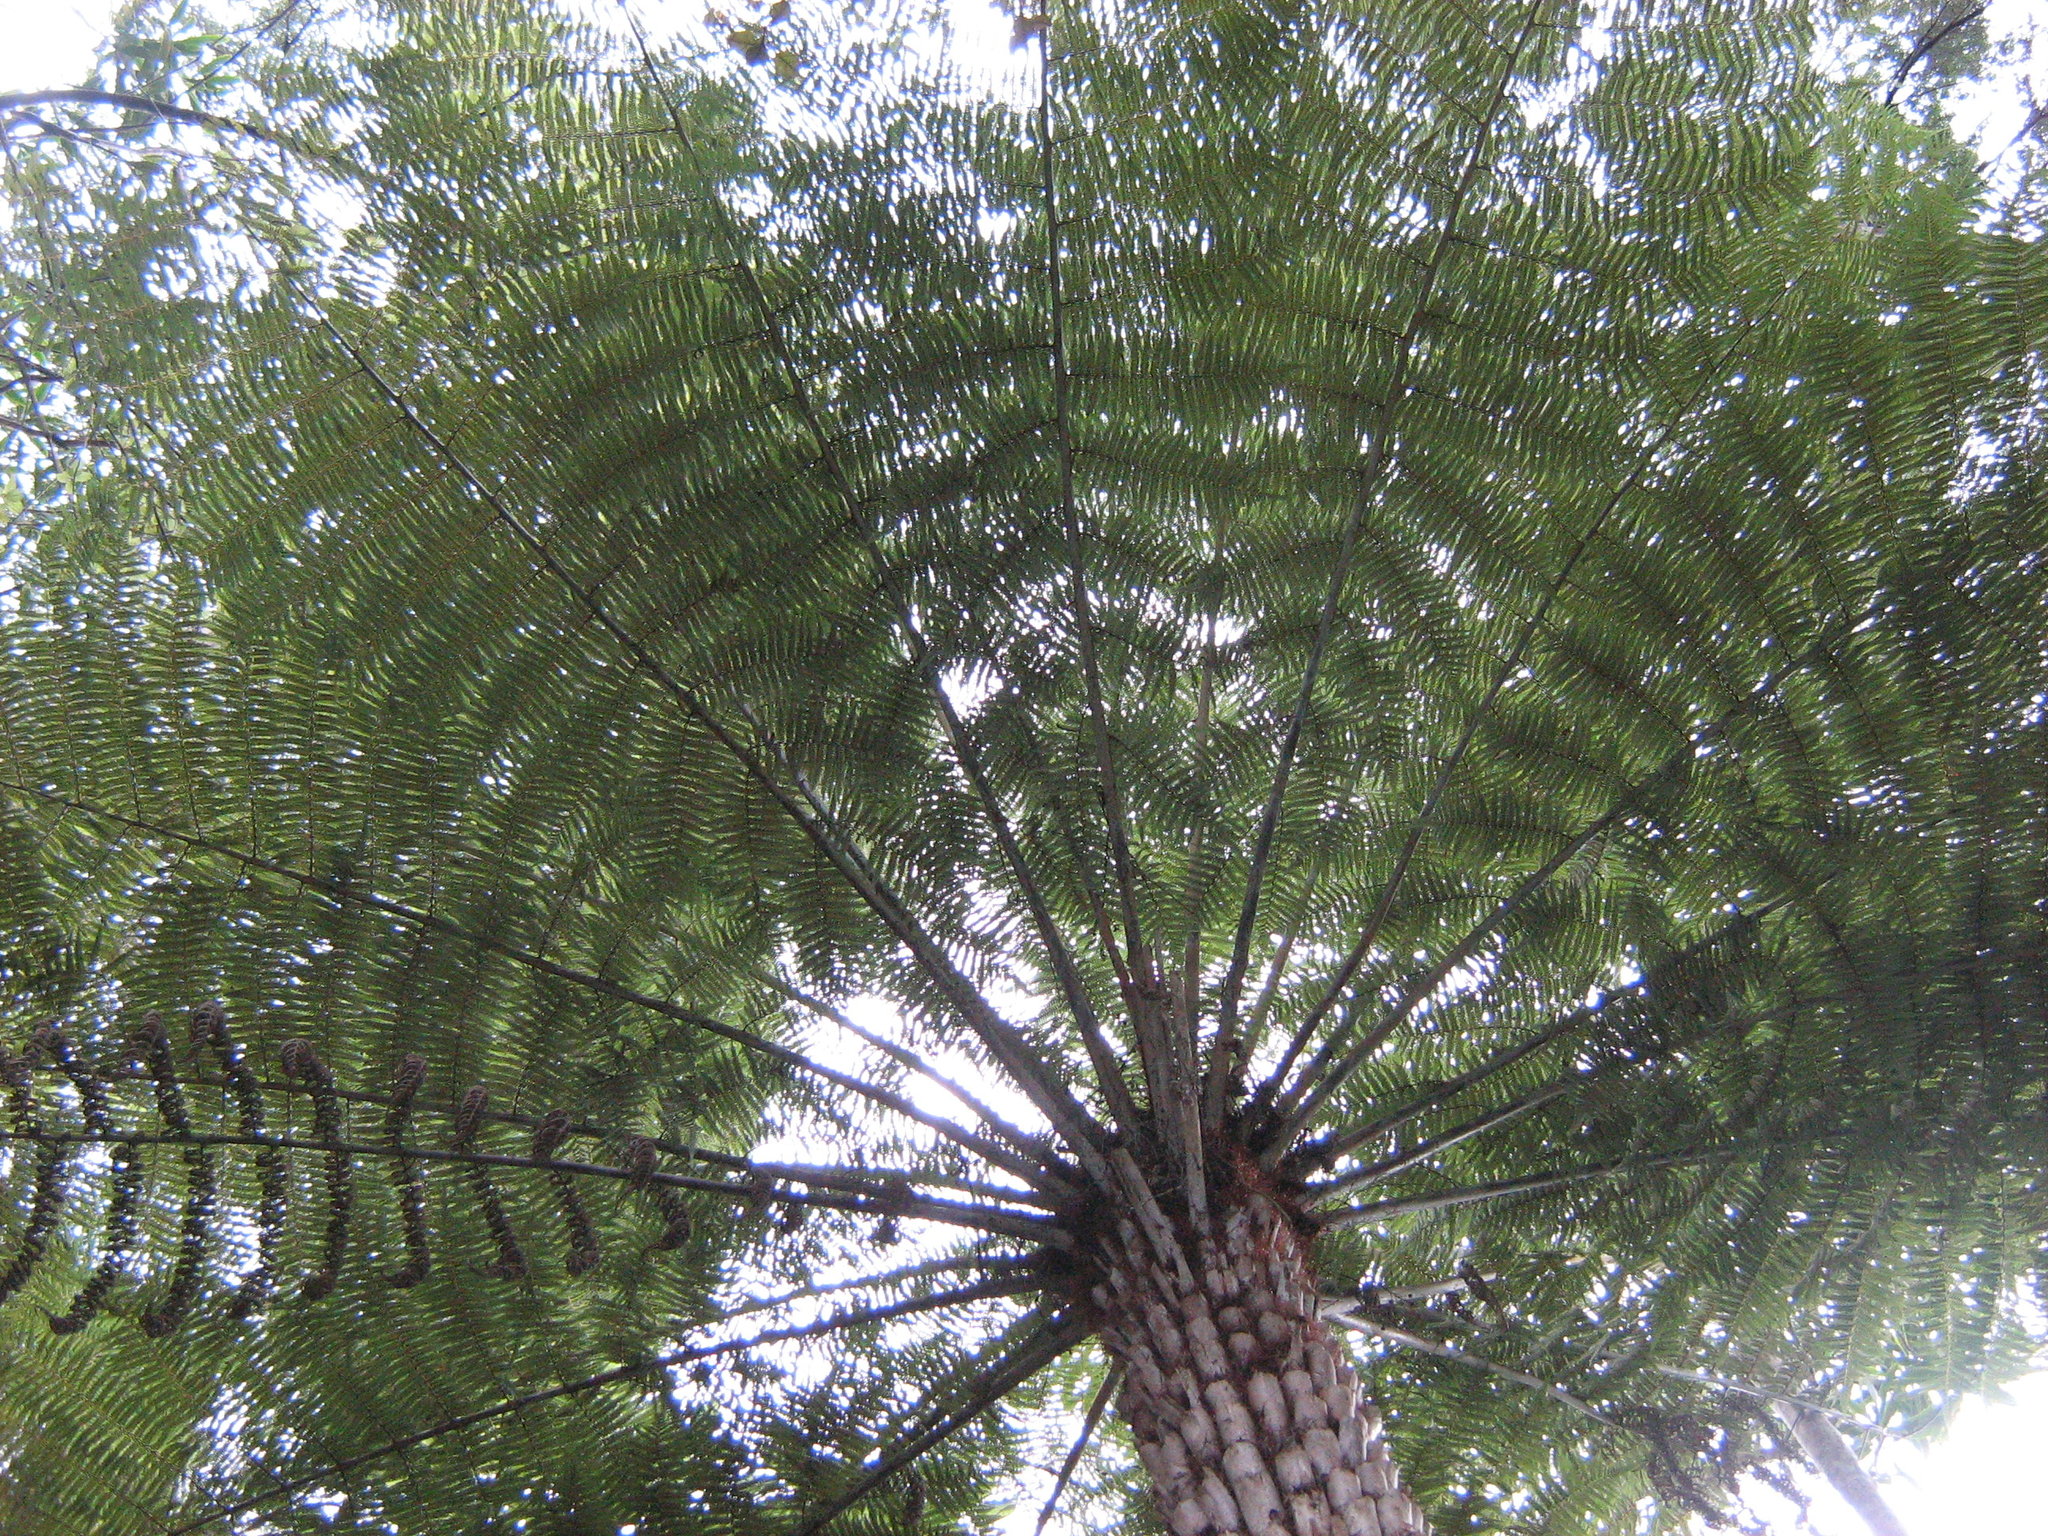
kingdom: Plantae
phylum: Tracheophyta
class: Polypodiopsida
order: Cyatheales
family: Cyatheaceae
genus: Alsophila
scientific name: Alsophila dealbata
